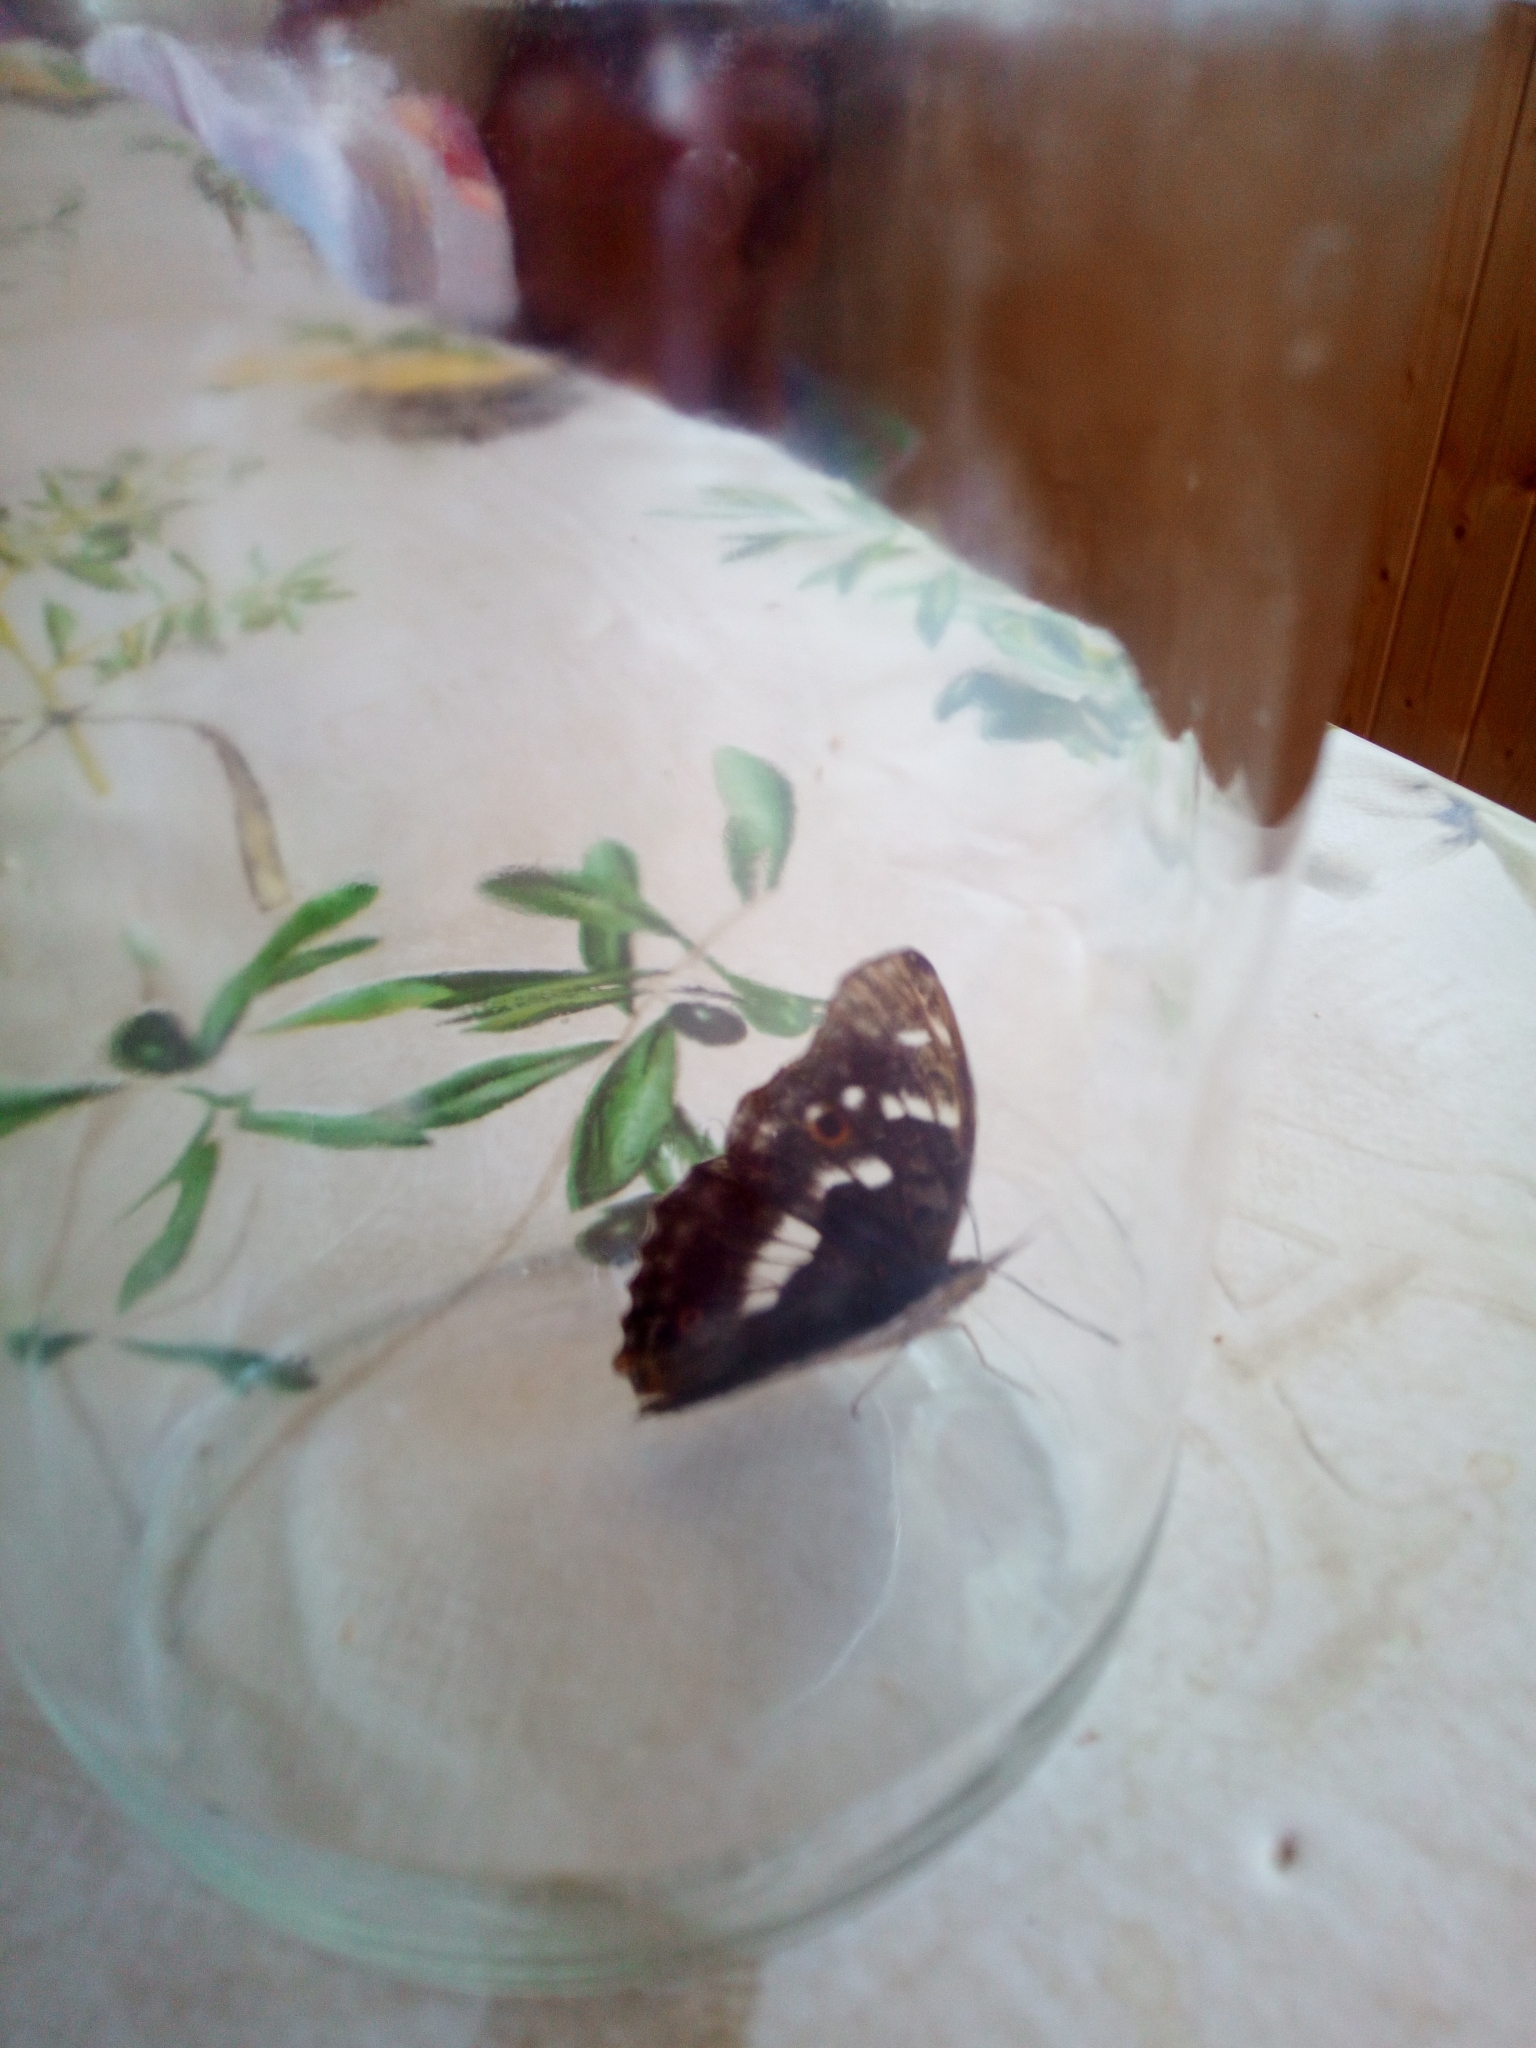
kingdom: Animalia
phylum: Arthropoda
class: Insecta
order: Lepidoptera
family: Nymphalidae
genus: Apatura
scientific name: Apatura ilia
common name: Lesser purple emperor
